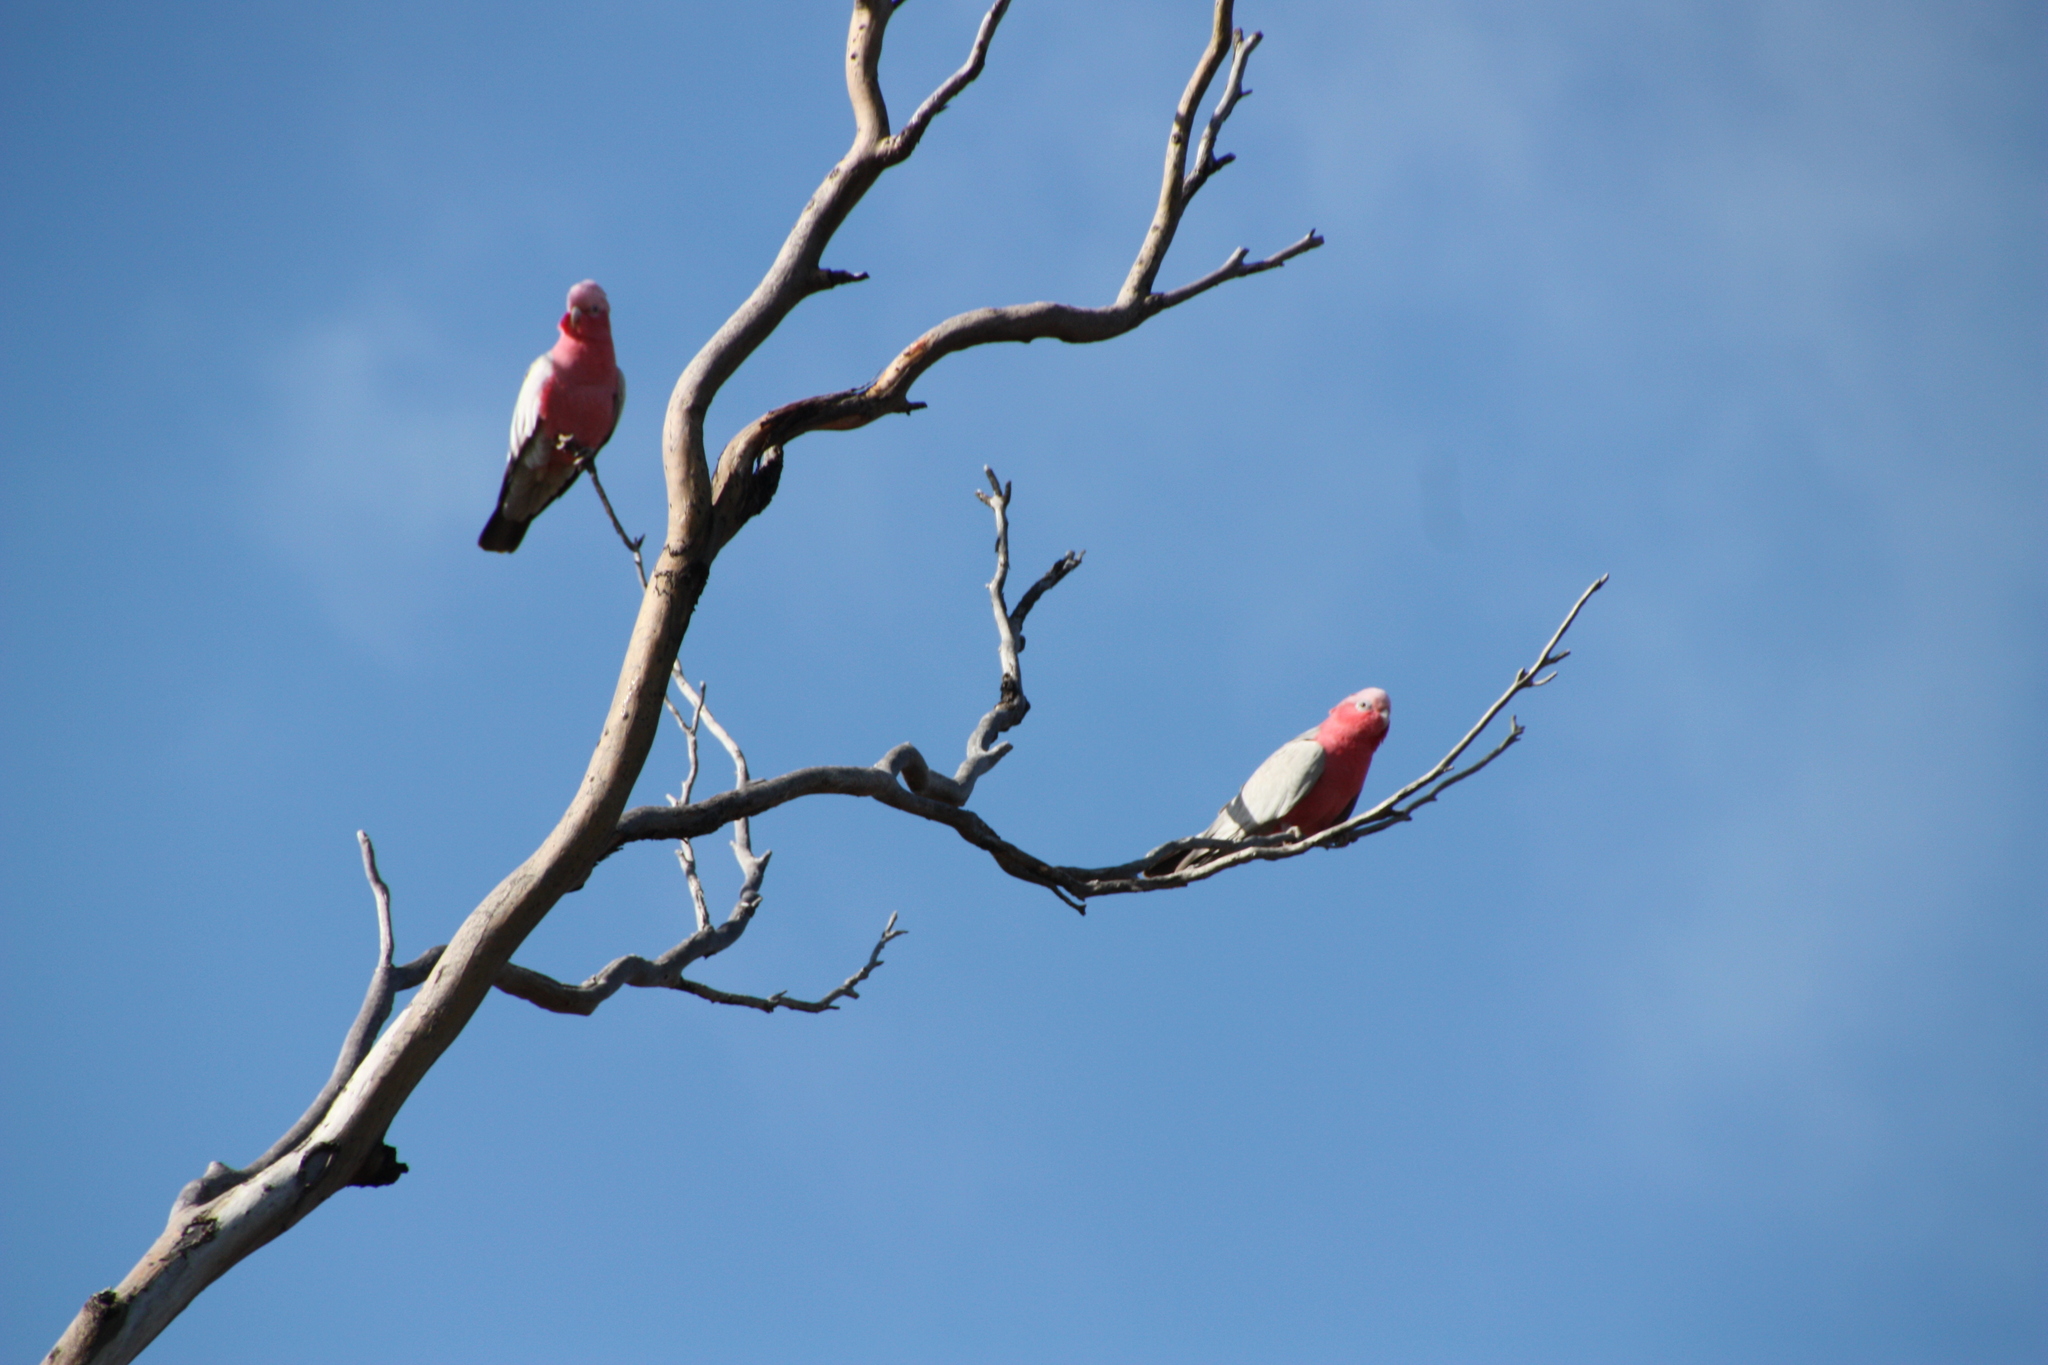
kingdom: Animalia
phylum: Chordata
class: Aves
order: Psittaciformes
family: Psittacidae
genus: Eolophus
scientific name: Eolophus roseicapilla
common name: Galah
